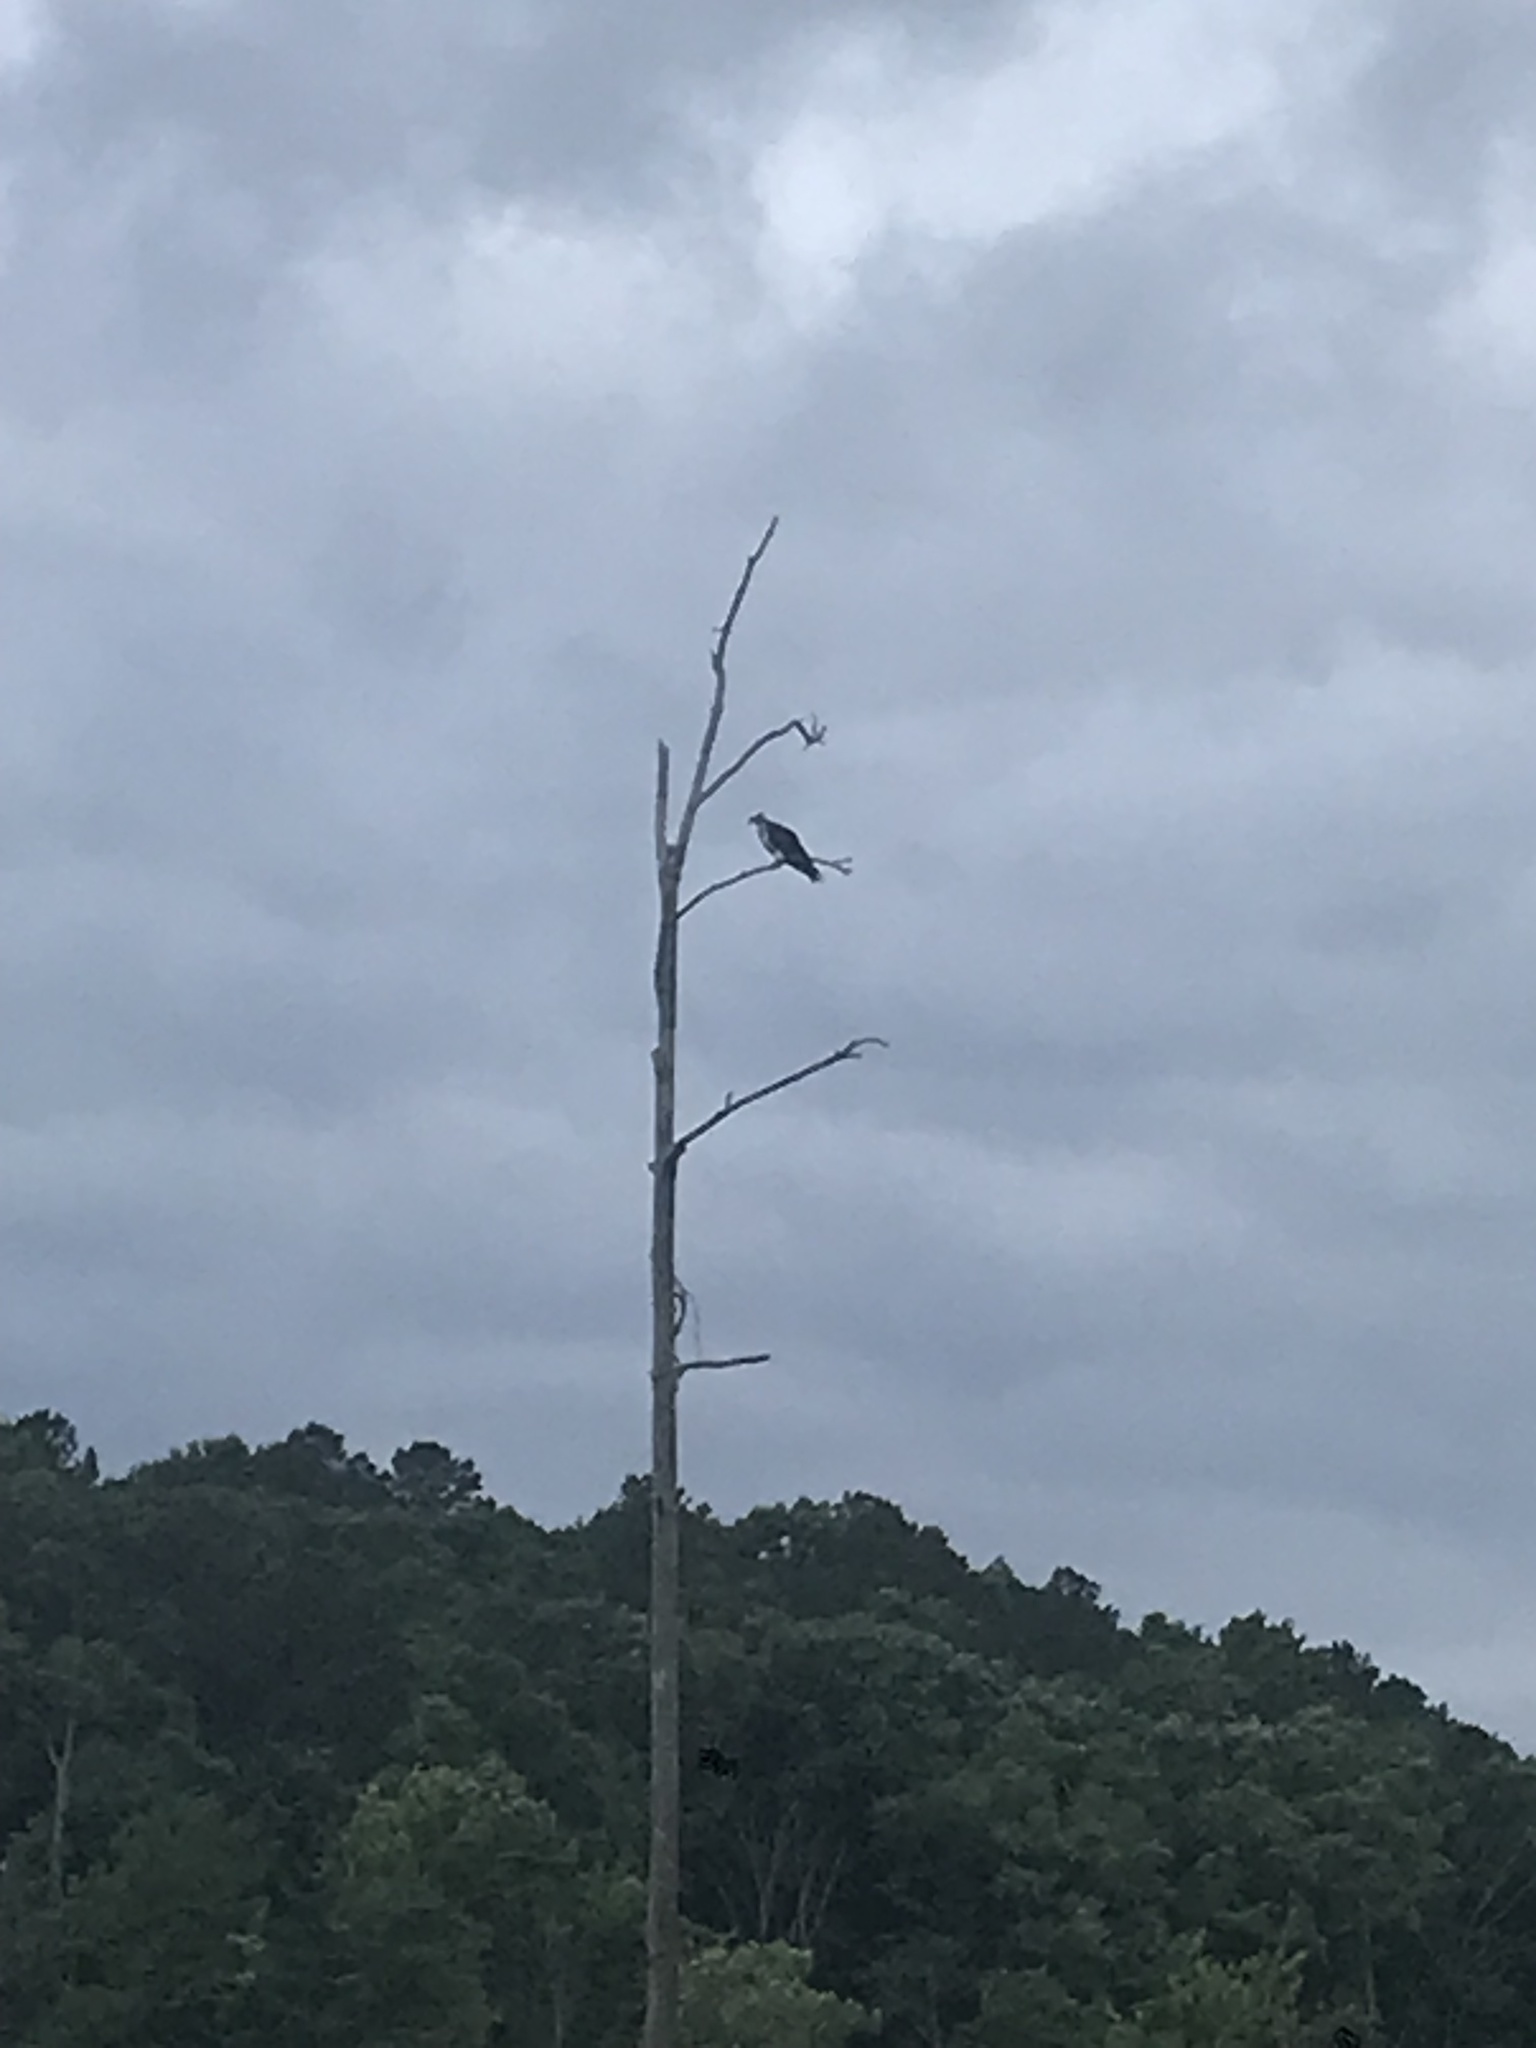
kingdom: Animalia
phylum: Chordata
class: Aves
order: Accipitriformes
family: Pandionidae
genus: Pandion
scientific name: Pandion haliaetus
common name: Osprey
